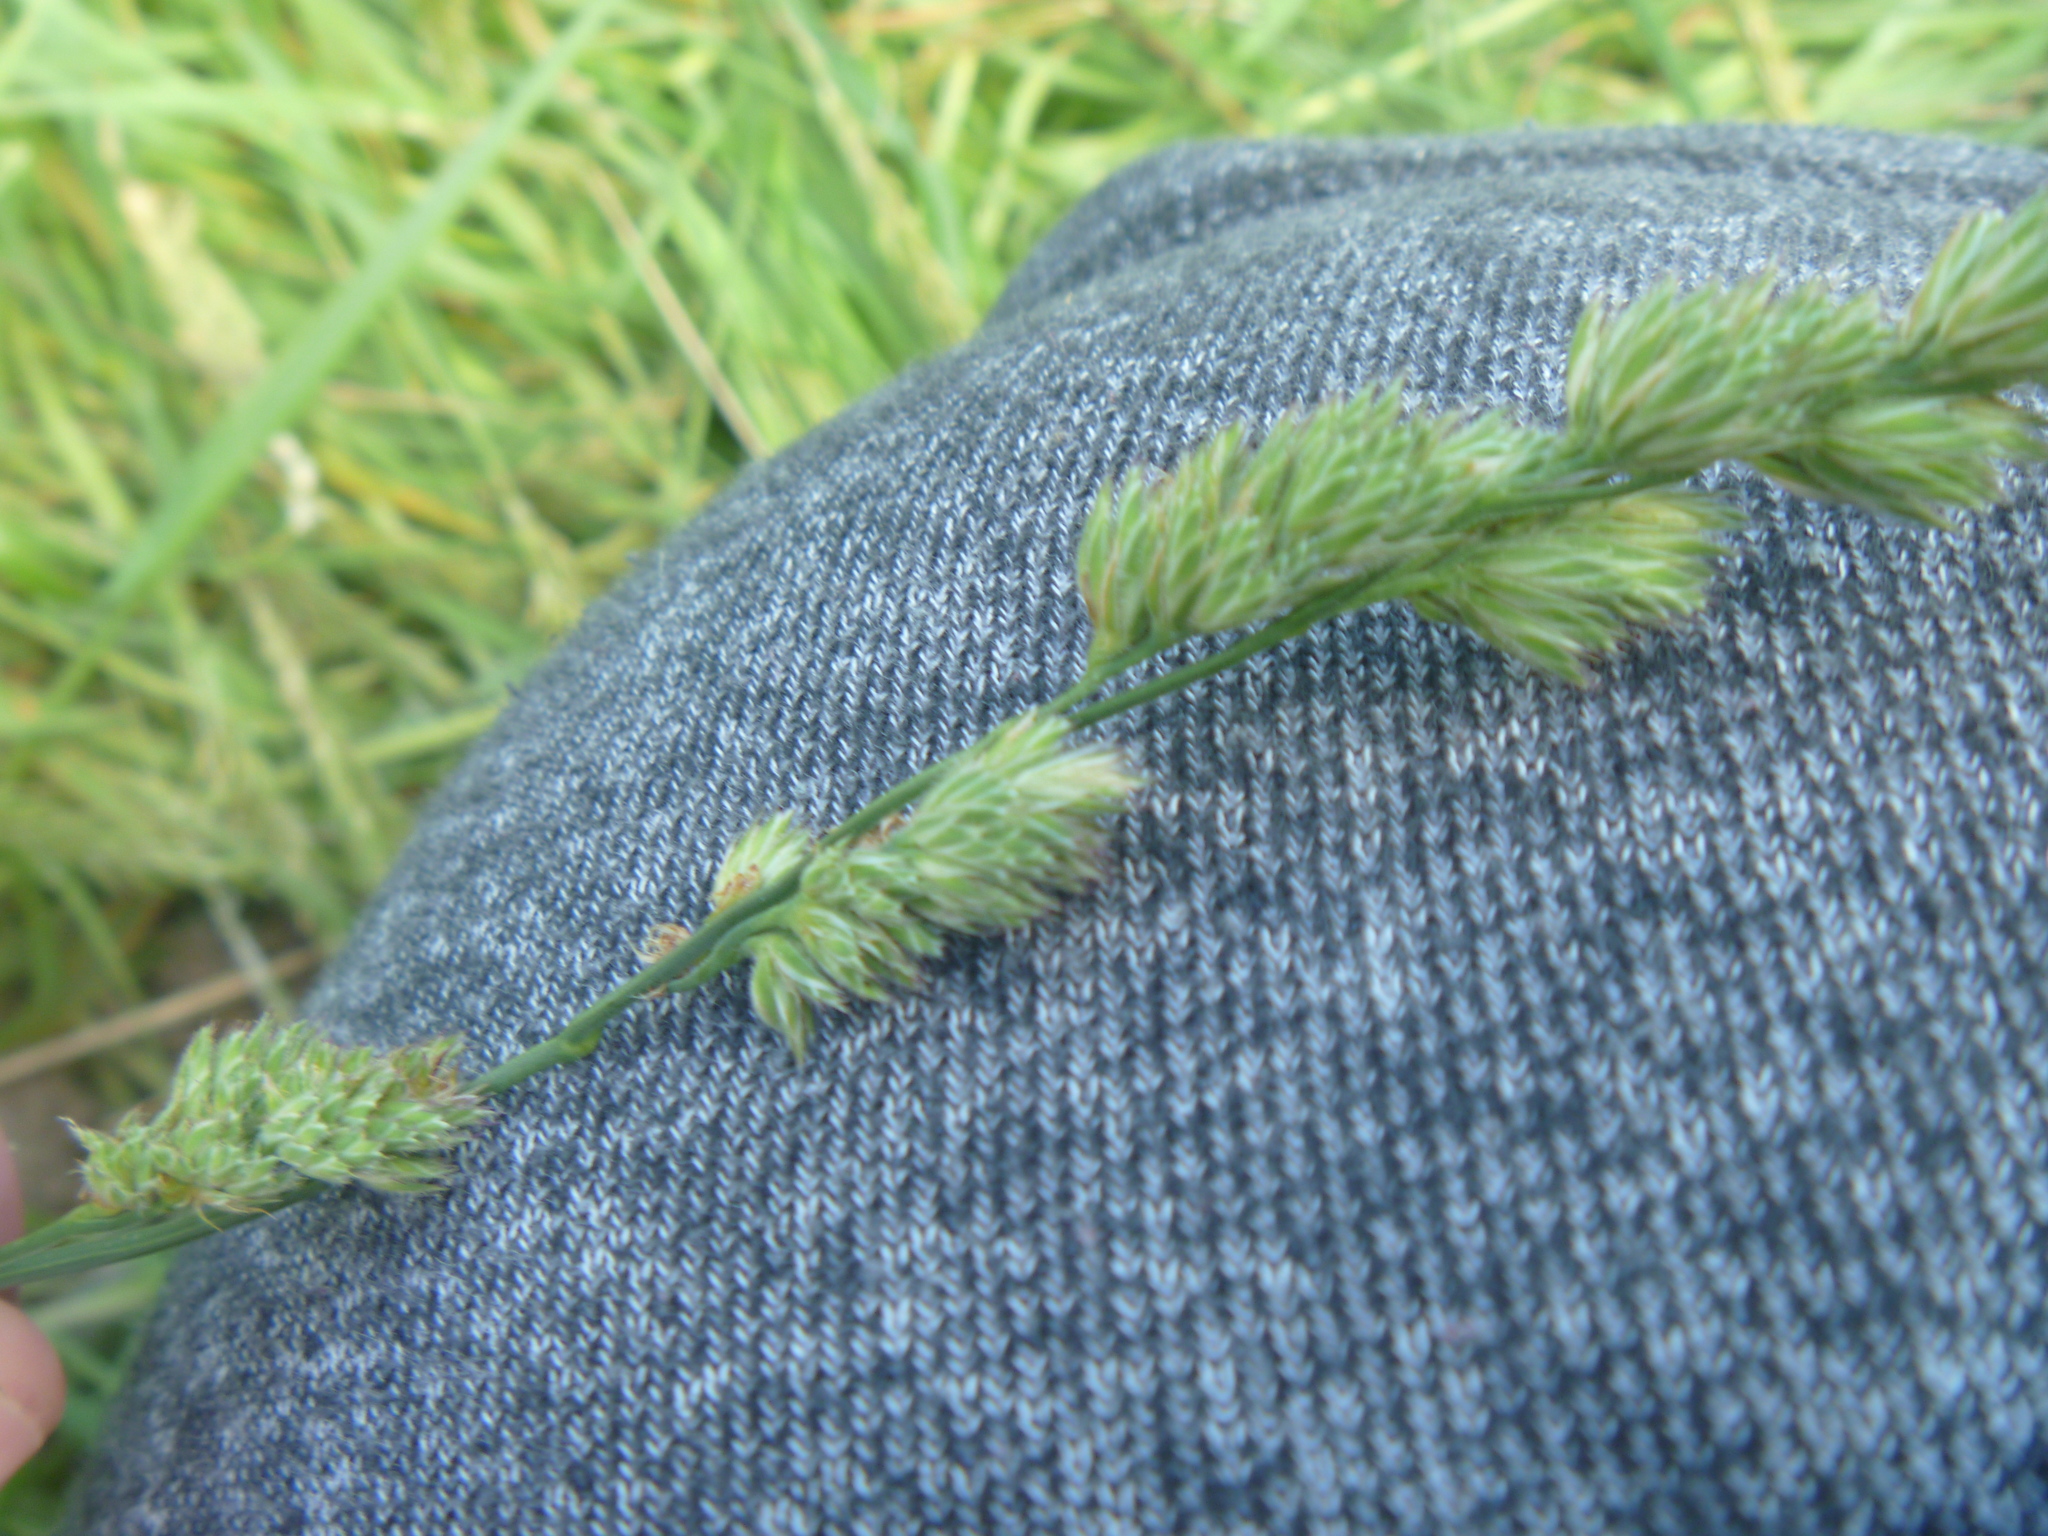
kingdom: Plantae
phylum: Tracheophyta
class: Liliopsida
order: Poales
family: Poaceae
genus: Dactylis
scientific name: Dactylis glomerata
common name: Orchardgrass
